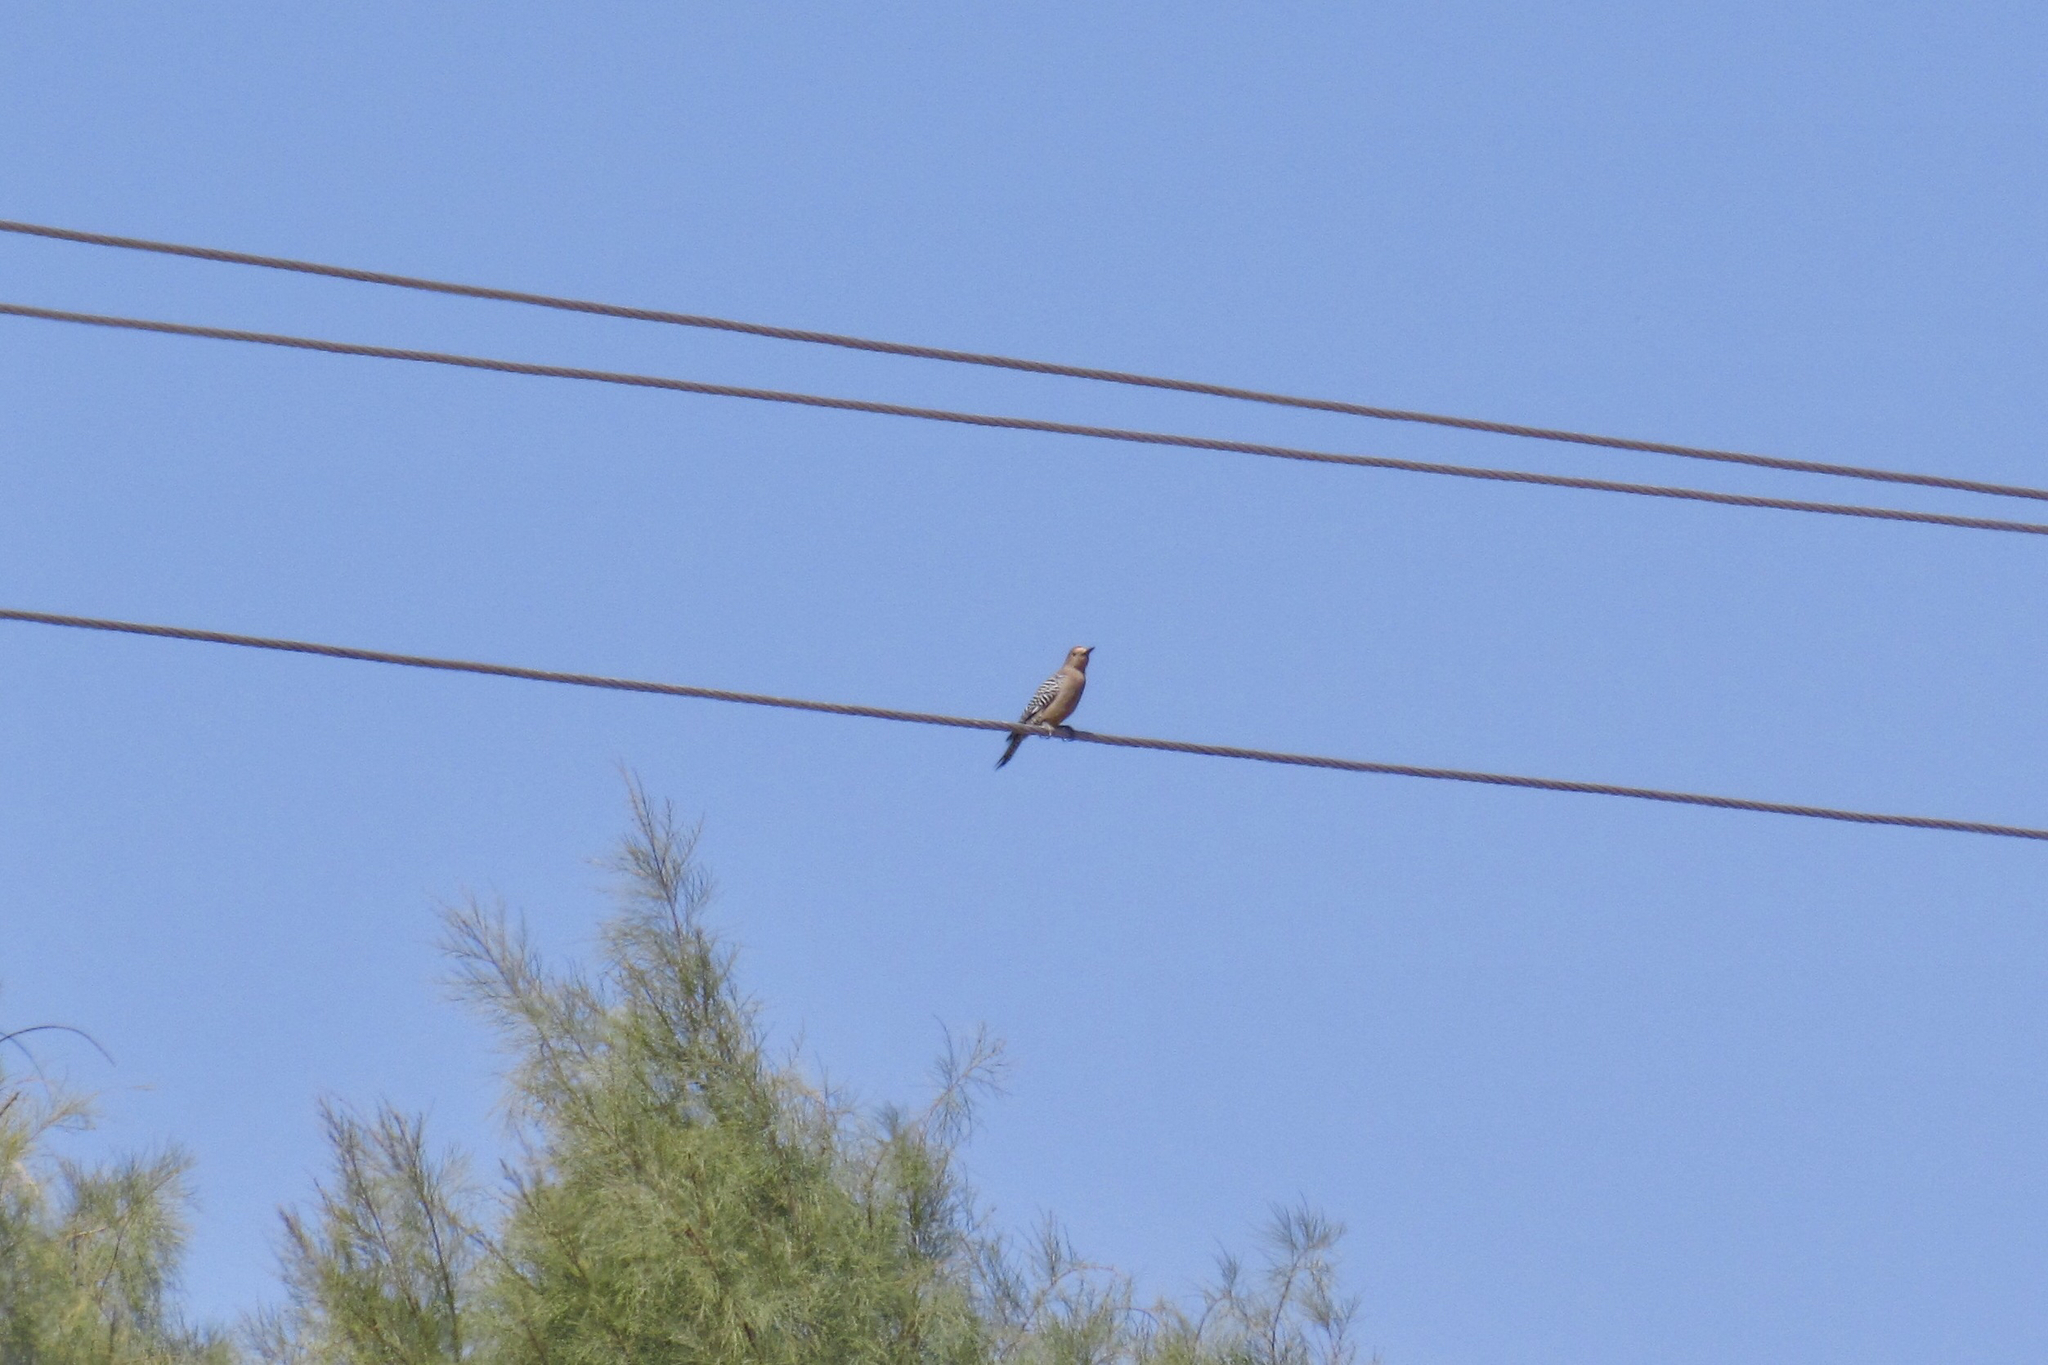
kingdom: Animalia
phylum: Chordata
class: Aves
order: Piciformes
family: Picidae
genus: Melanerpes
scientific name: Melanerpes uropygialis
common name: Gila woodpecker
